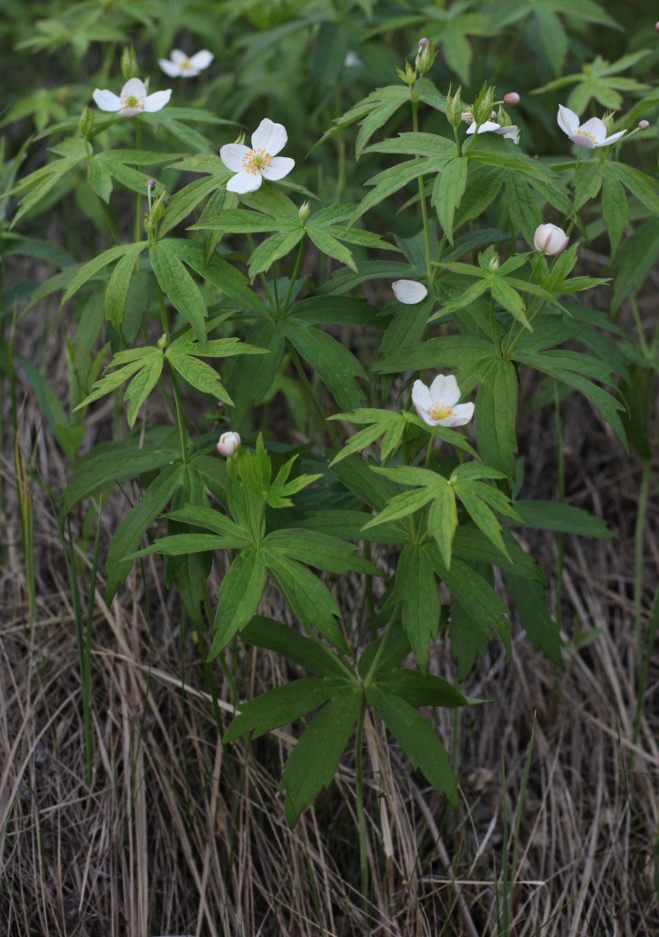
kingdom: Plantae
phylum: Tracheophyta
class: Magnoliopsida
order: Ranunculales
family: Ranunculaceae
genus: Anemonastrum
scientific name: Anemonastrum dichotomum
